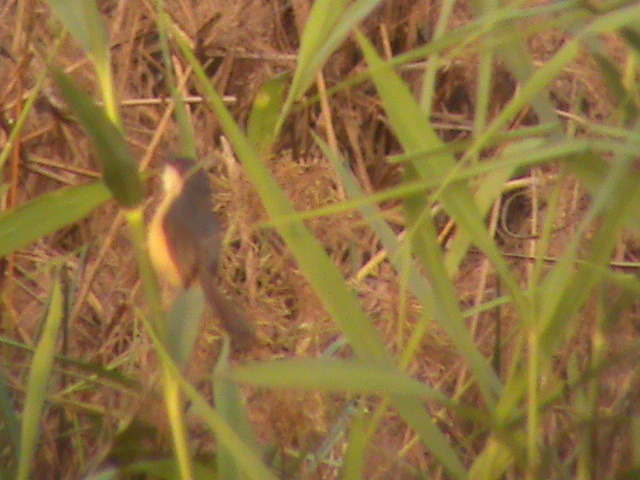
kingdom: Animalia
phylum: Chordata
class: Aves
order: Passeriformes
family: Cisticolidae
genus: Prinia
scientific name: Prinia socialis
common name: Ashy prinia
